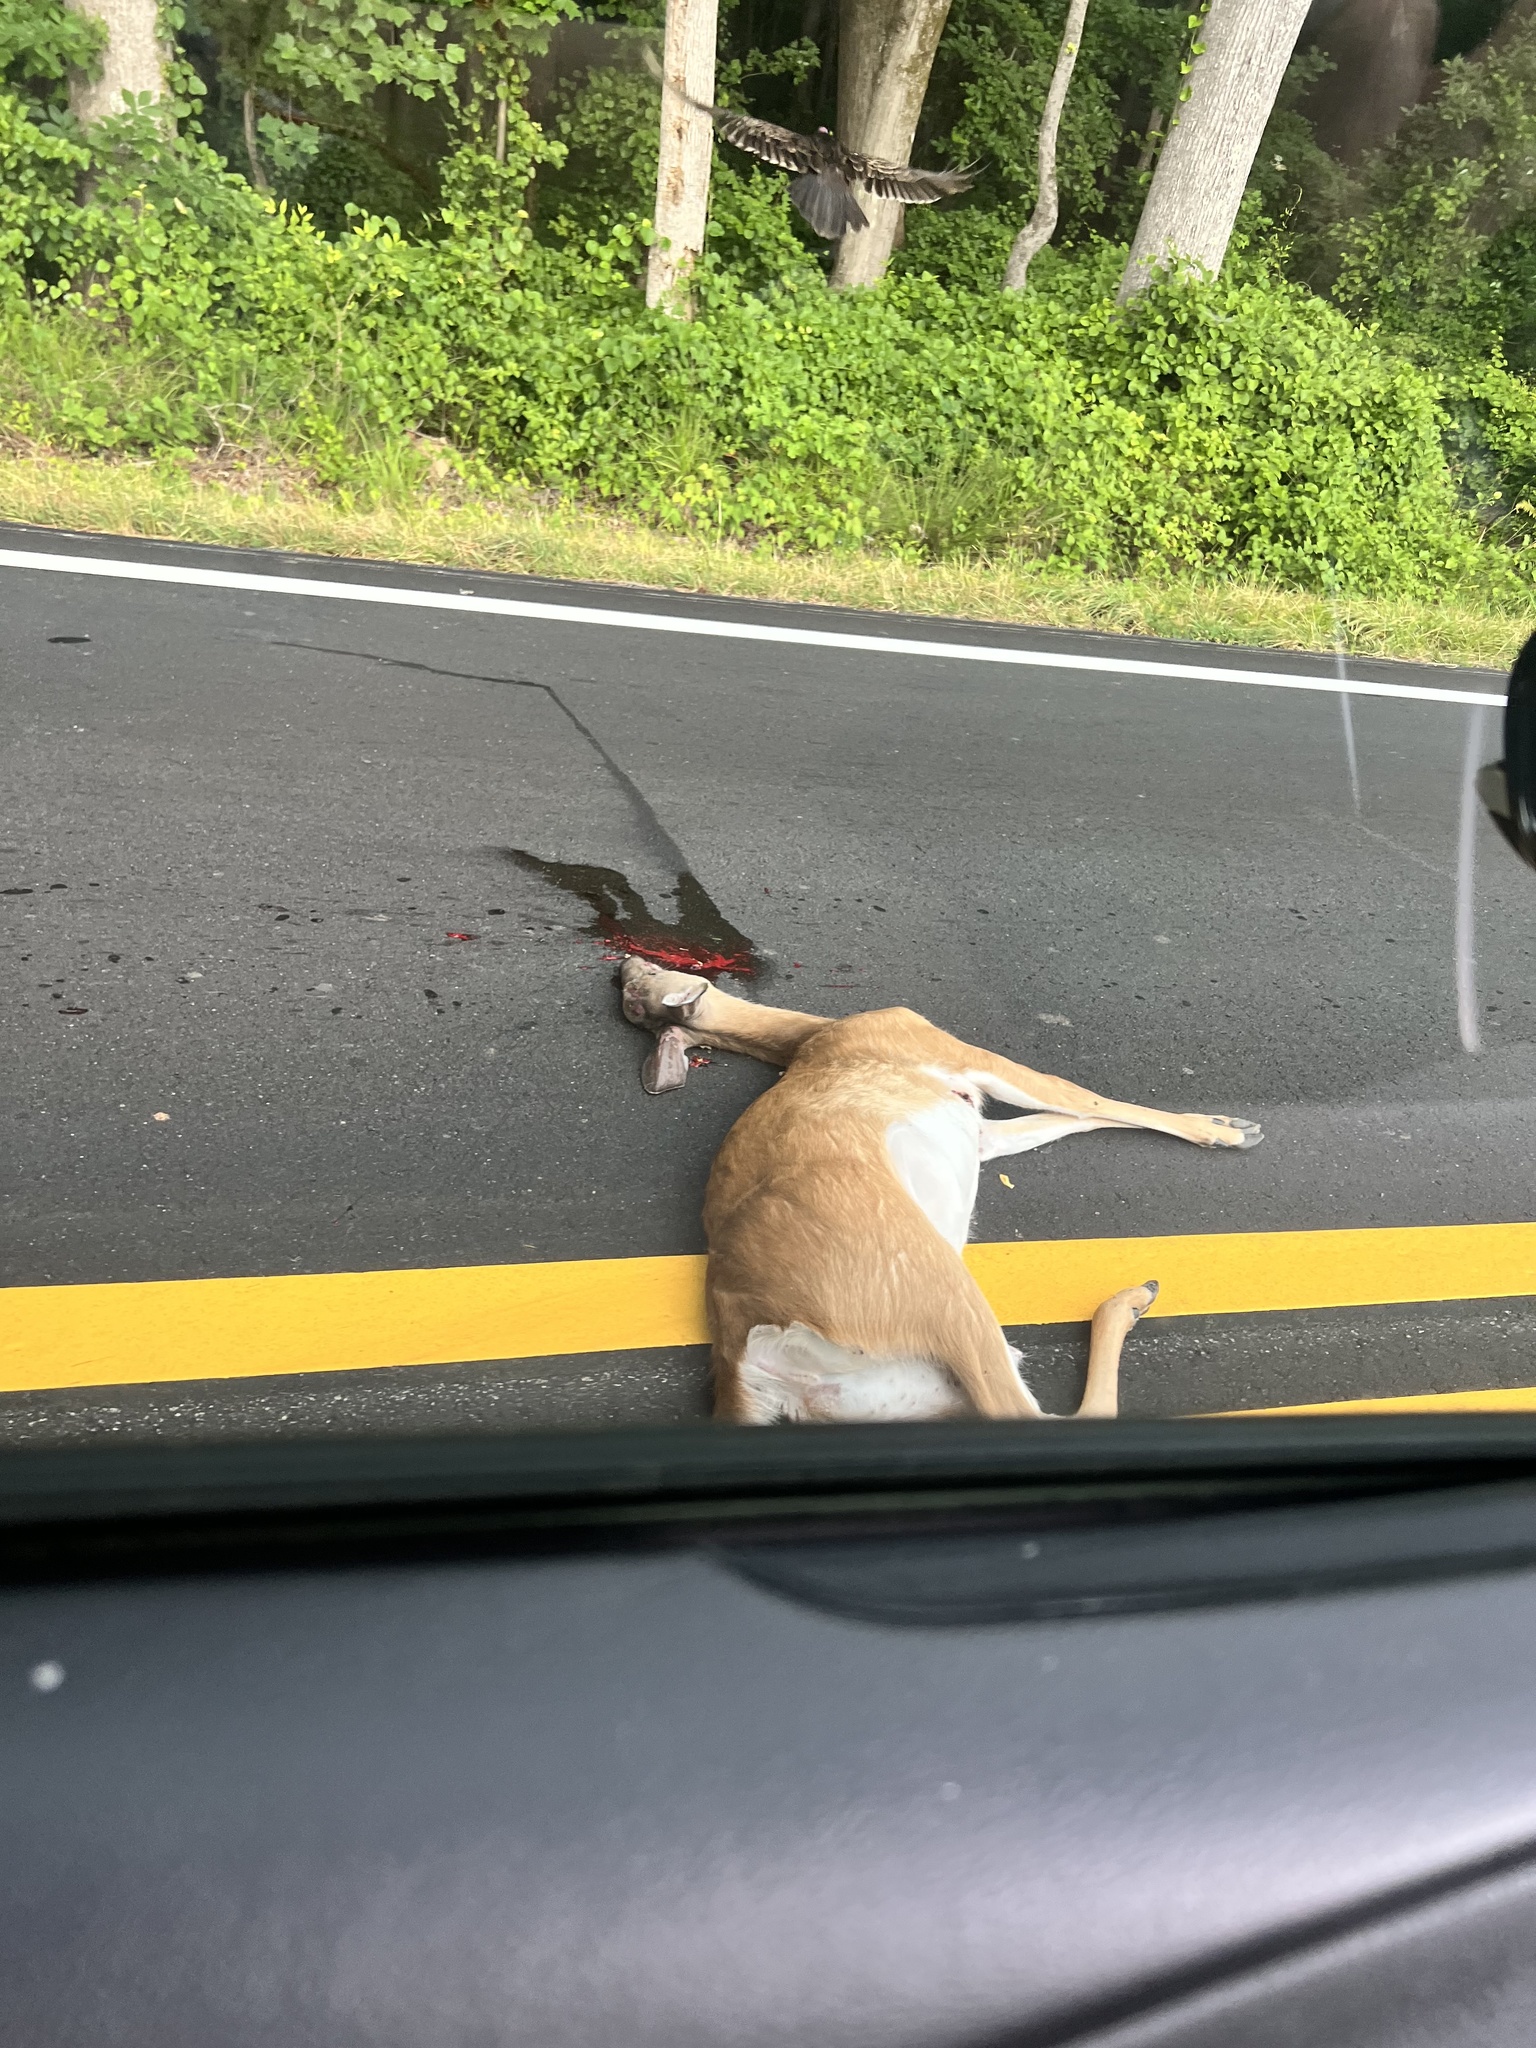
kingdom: Animalia
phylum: Chordata
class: Mammalia
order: Artiodactyla
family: Cervidae
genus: Odocoileus
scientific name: Odocoileus virginianus
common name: White-tailed deer
